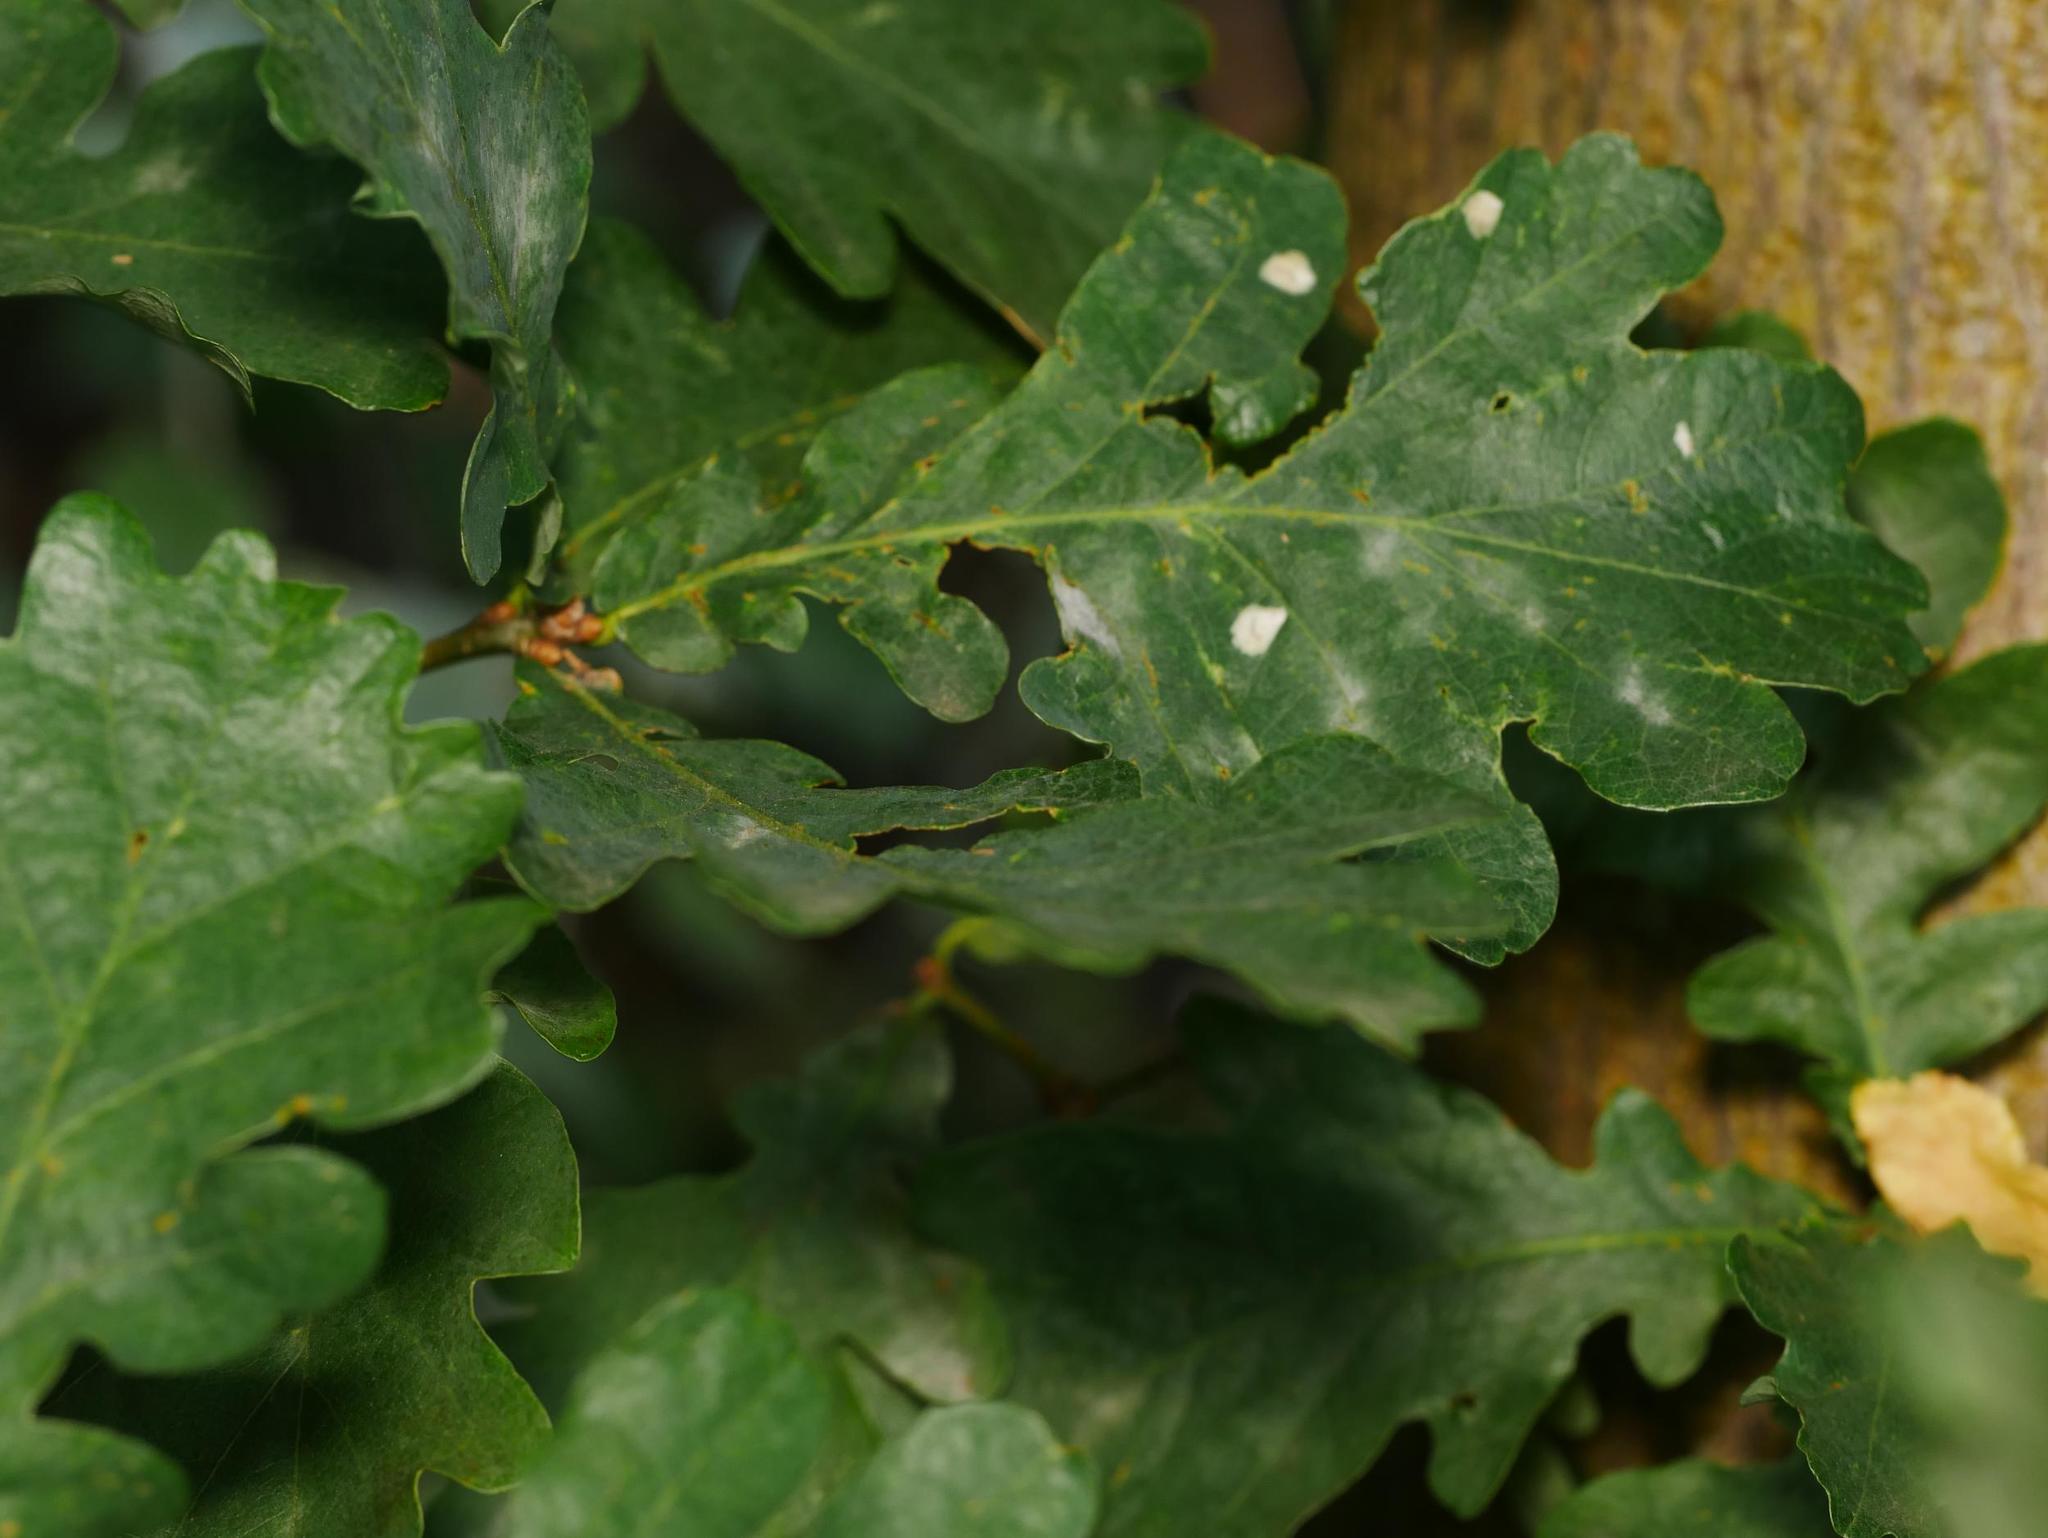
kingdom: Plantae
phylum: Tracheophyta
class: Magnoliopsida
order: Fagales
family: Fagaceae
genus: Quercus
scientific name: Quercus robur
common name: Pedunculate oak
